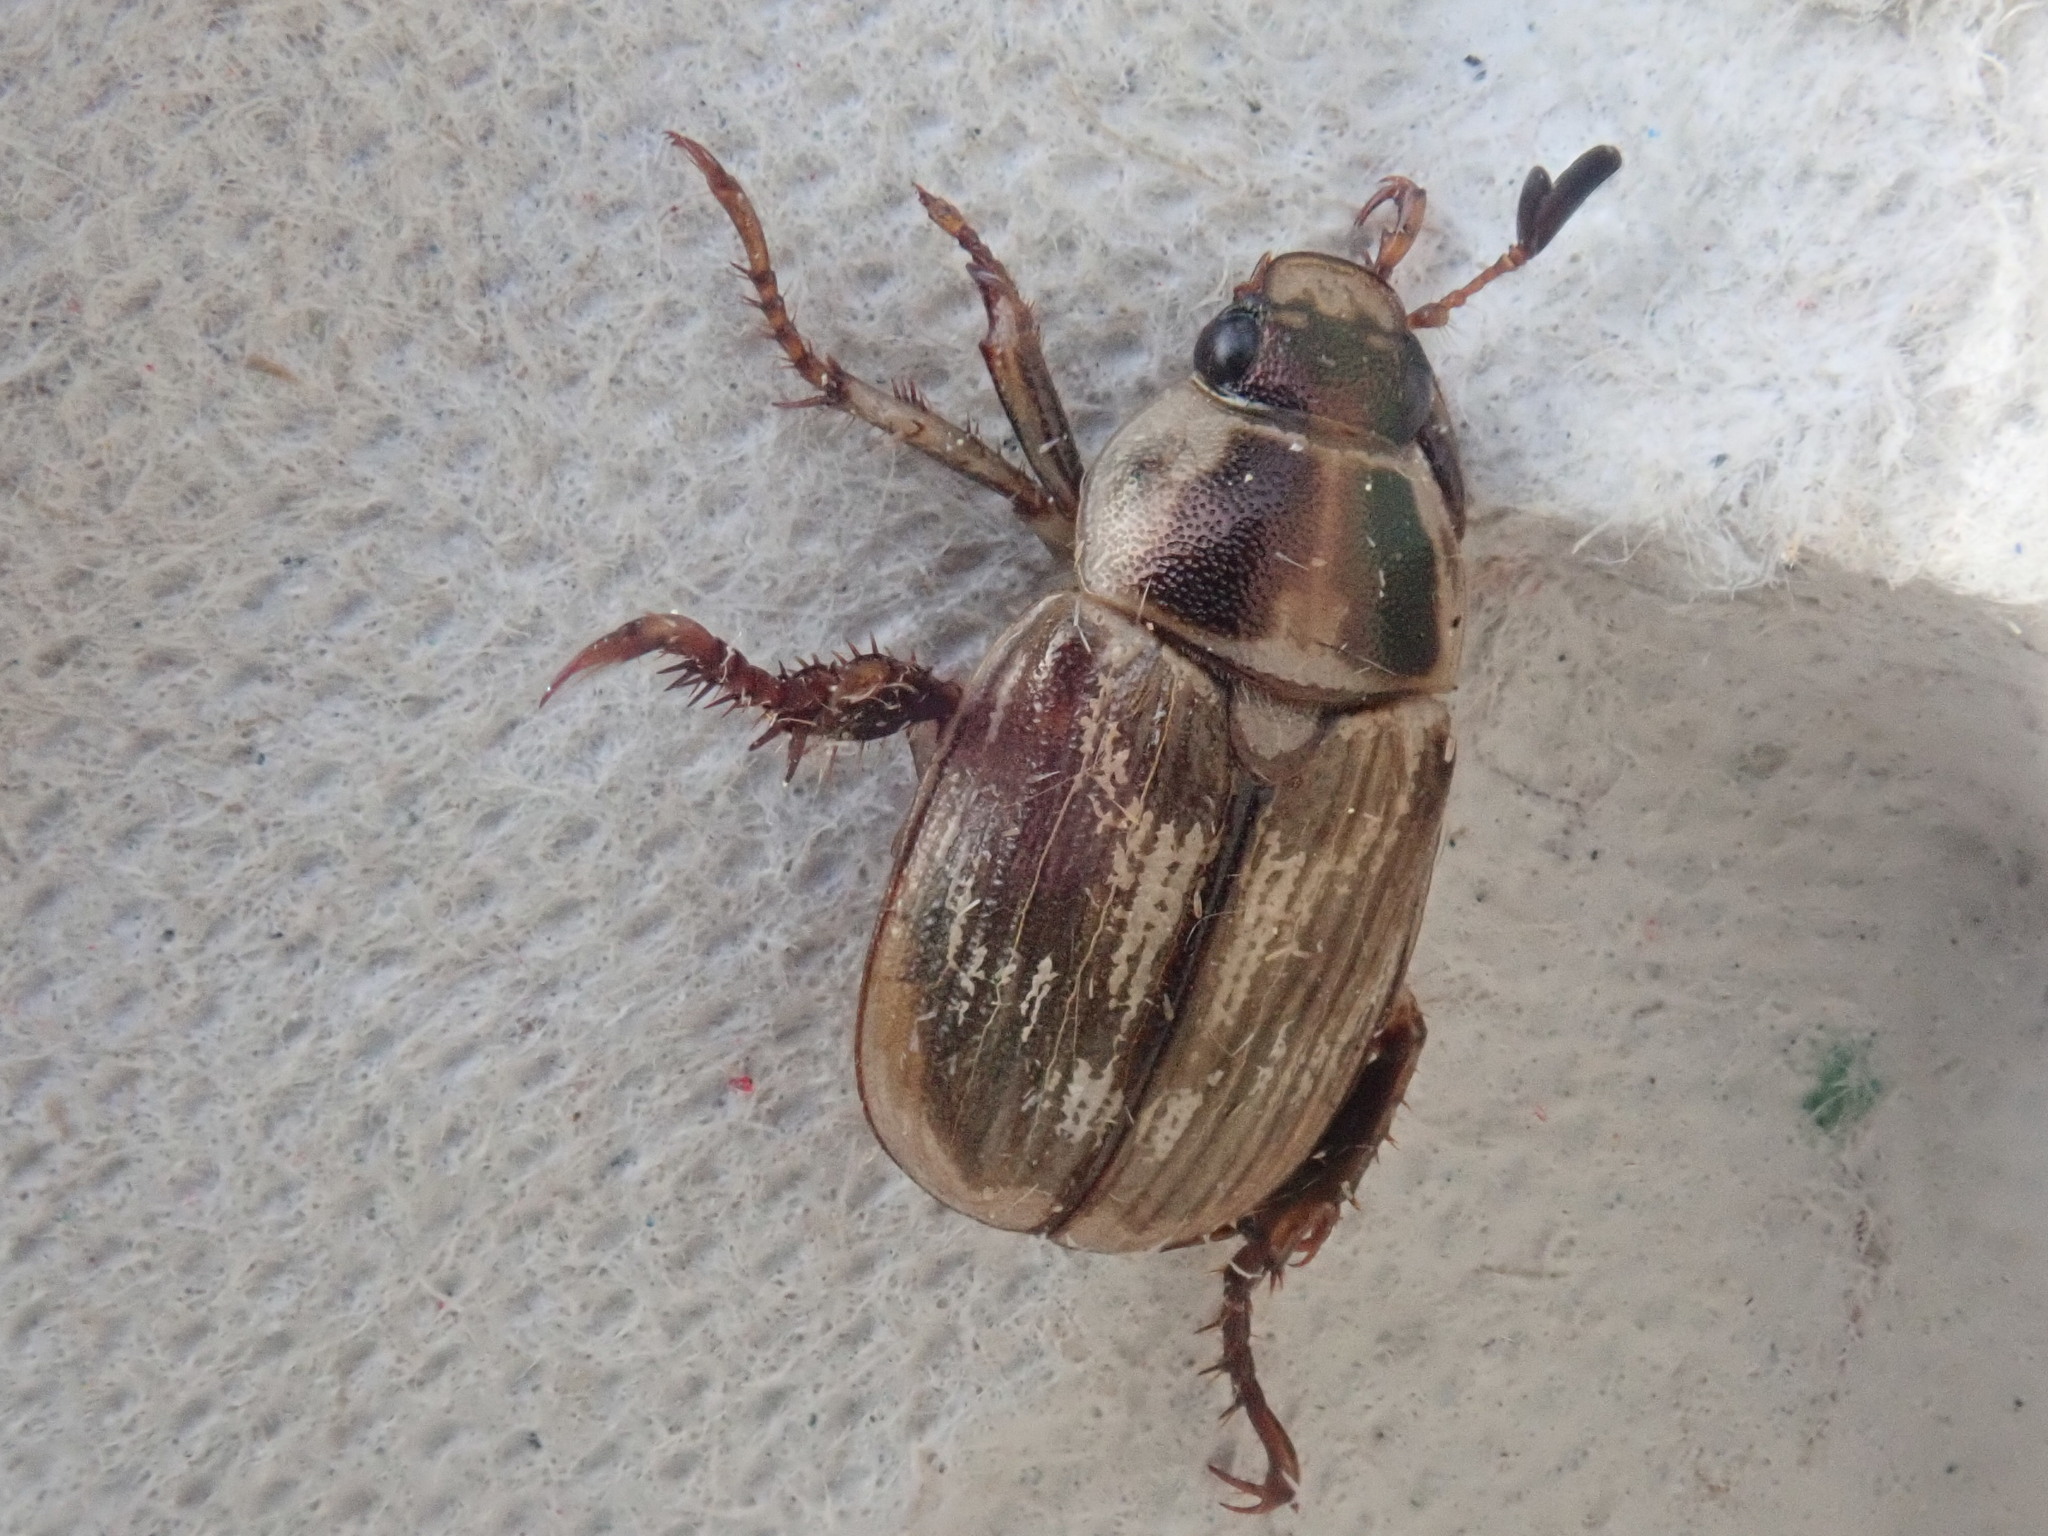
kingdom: Animalia
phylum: Arthropoda
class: Insecta
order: Coleoptera
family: Scarabaeidae
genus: Exomala
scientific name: Exomala orientalis
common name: Oriental beetle
